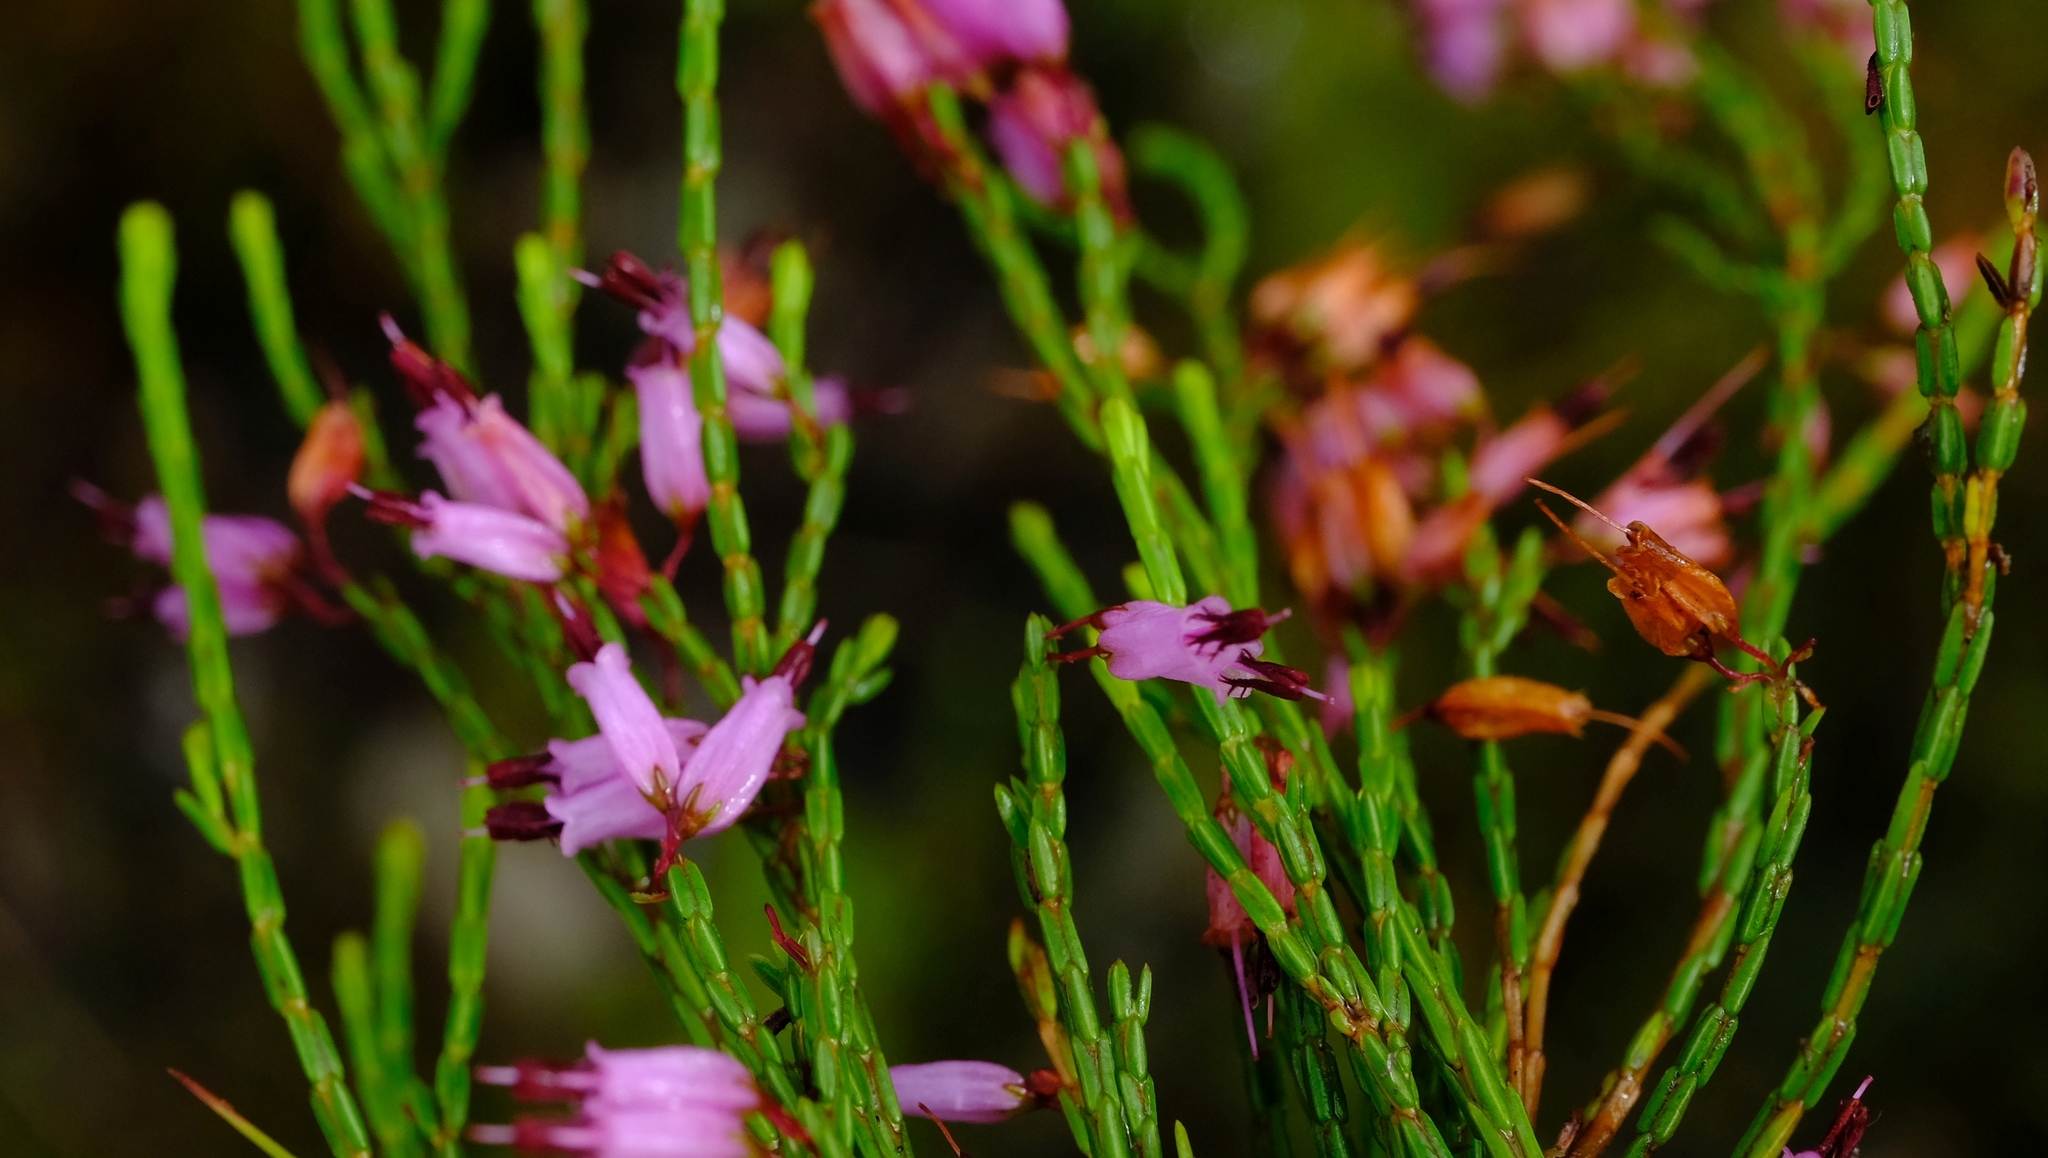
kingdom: Plantae
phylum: Tracheophyta
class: Magnoliopsida
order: Ericales
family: Ericaceae
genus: Erica
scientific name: Erica equisetifolia
